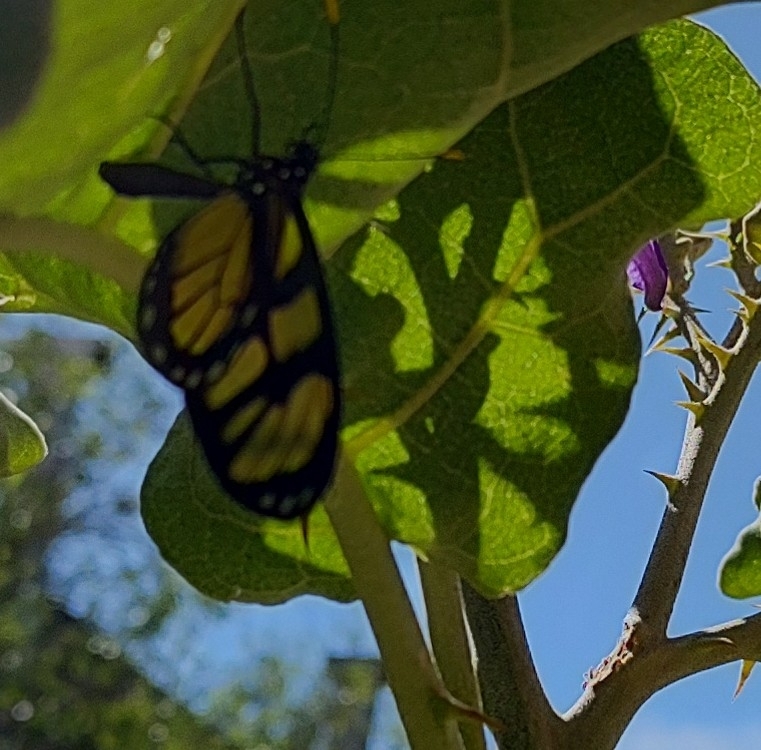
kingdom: Animalia
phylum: Arthropoda
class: Insecta
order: Lepidoptera
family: Nymphalidae
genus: Dircenna
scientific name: Dircenna dero
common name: Dero clearwing
